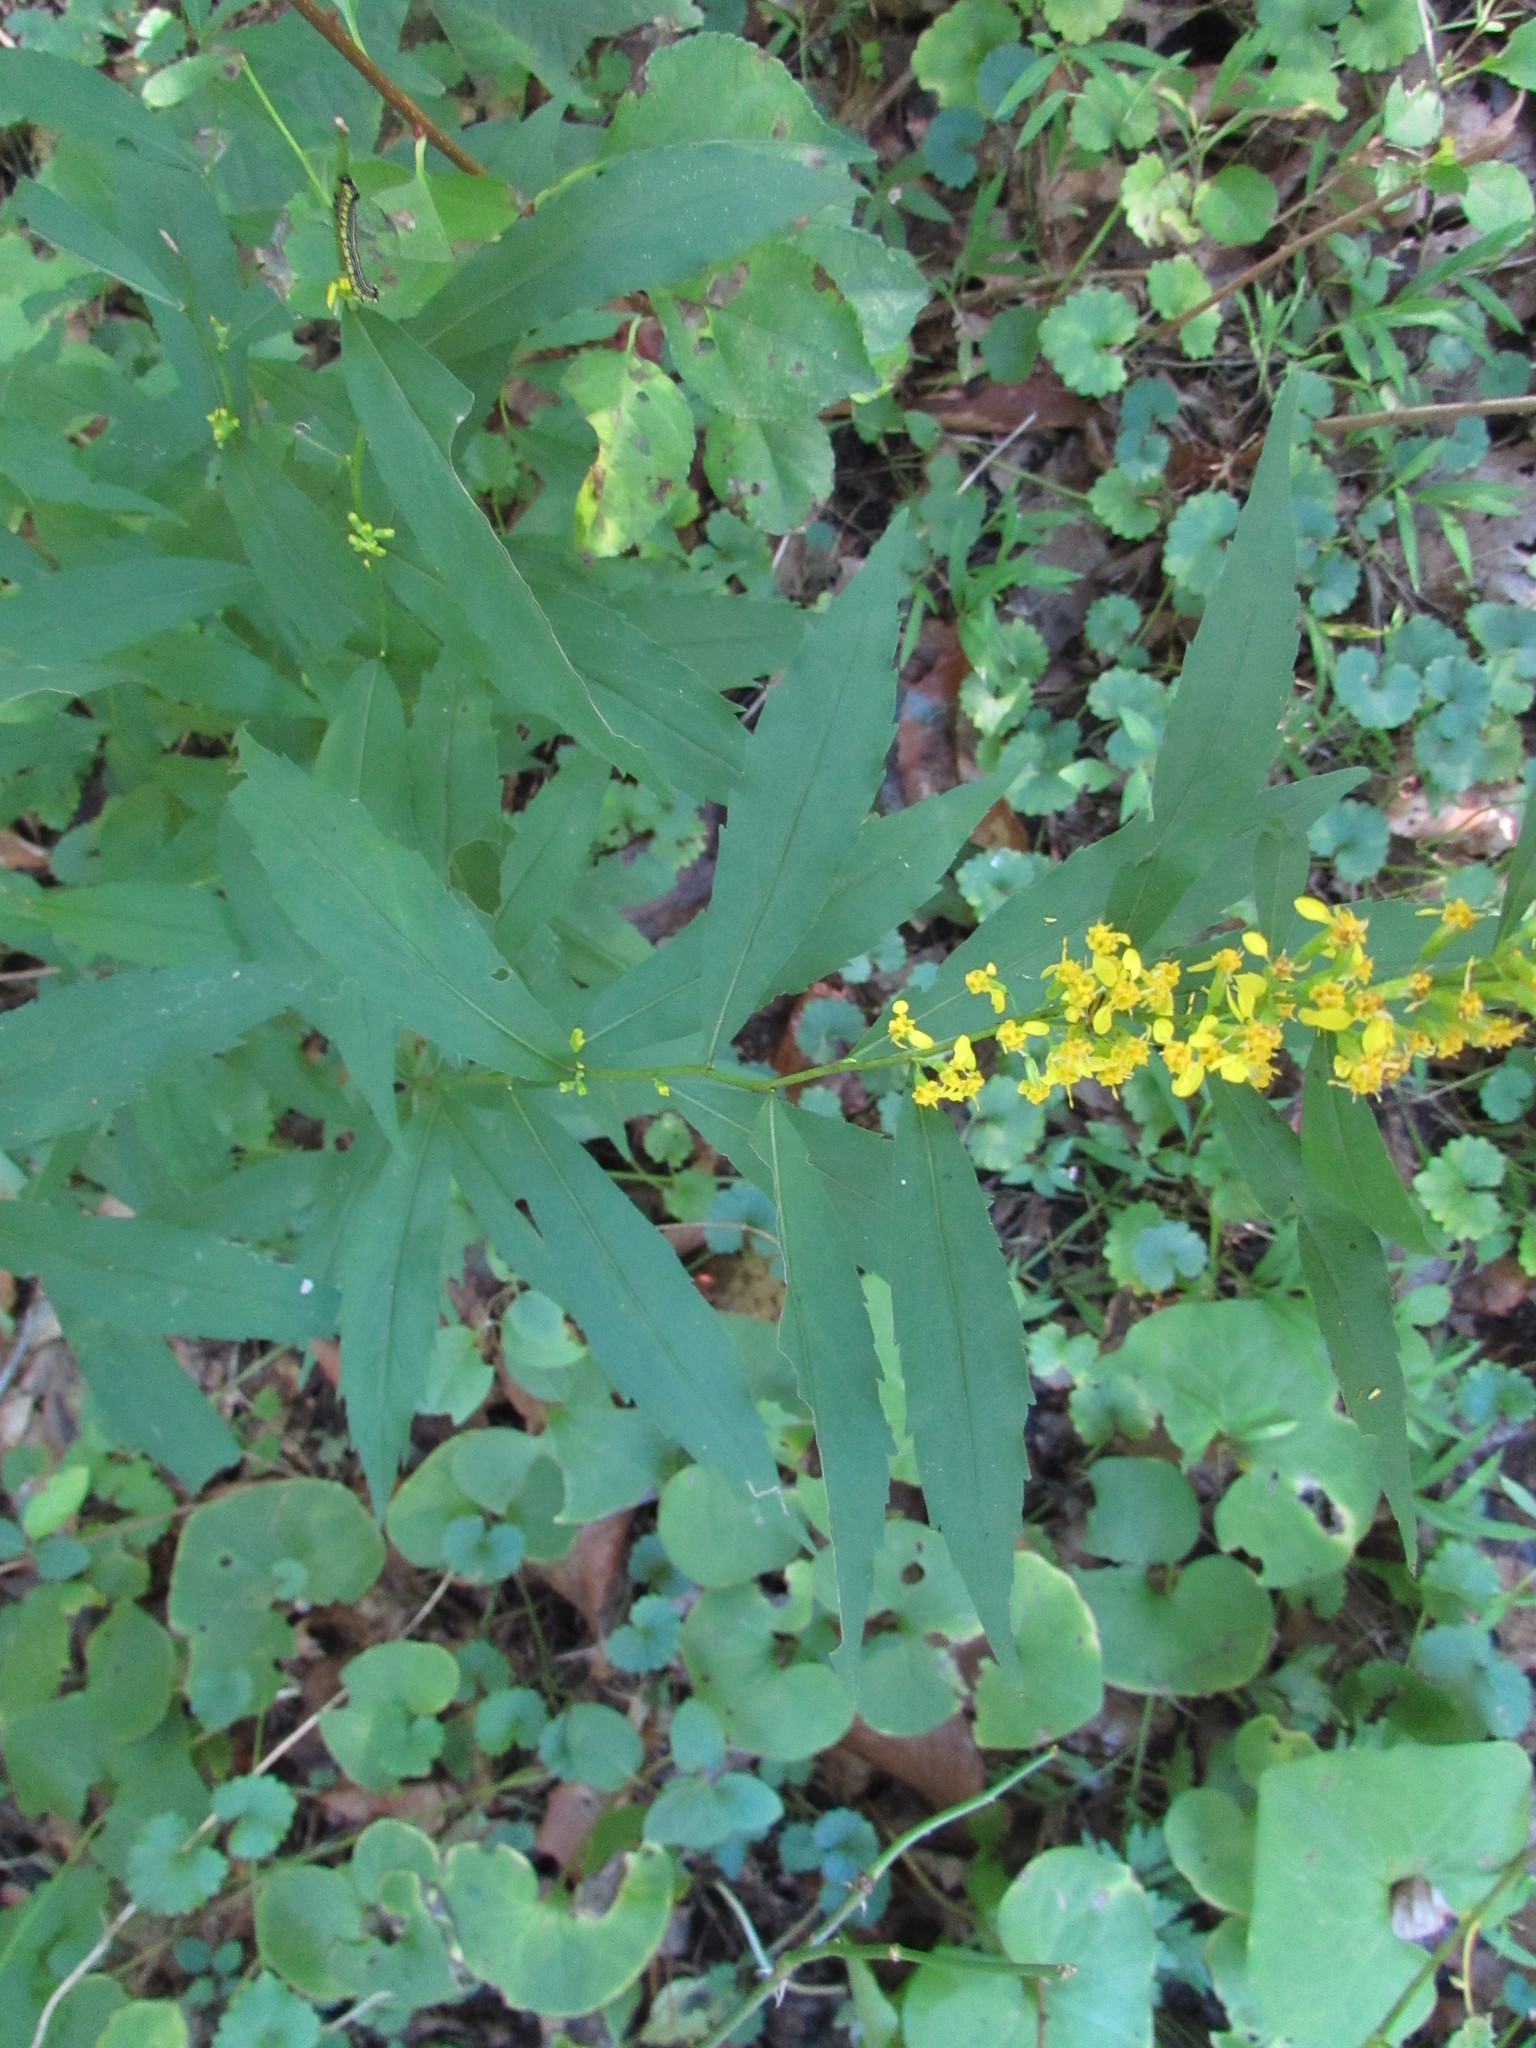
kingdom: Plantae
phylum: Tracheophyta
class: Magnoliopsida
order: Asterales
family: Asteraceae
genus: Solidago
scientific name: Solidago caesia
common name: Woodland goldenrod
